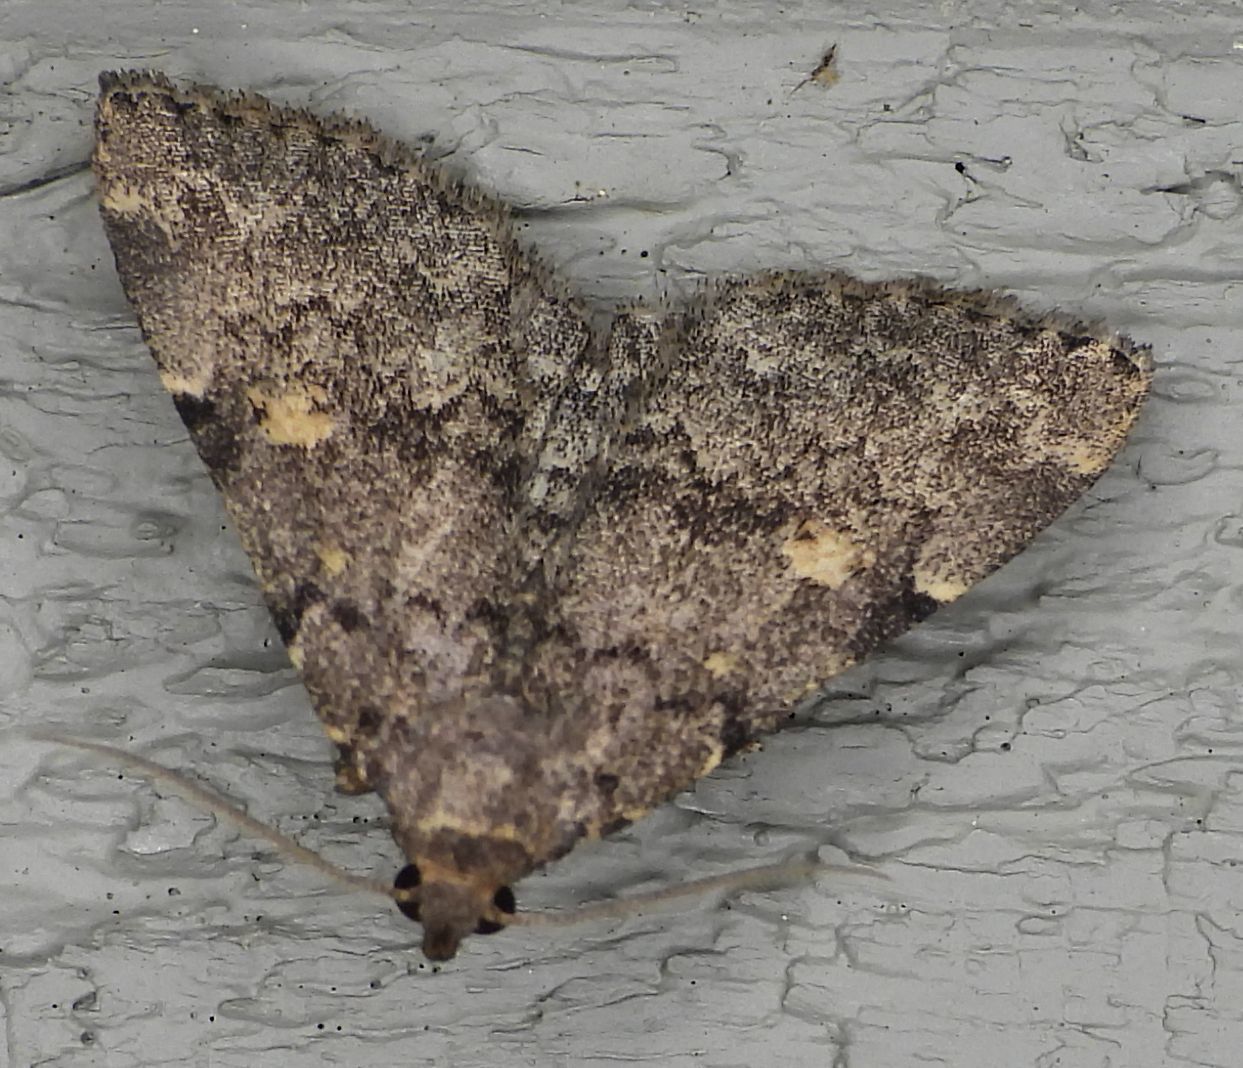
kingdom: Animalia
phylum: Arthropoda
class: Insecta
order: Lepidoptera
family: Erebidae
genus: Idia
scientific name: Idia aemula
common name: Common idia moth
